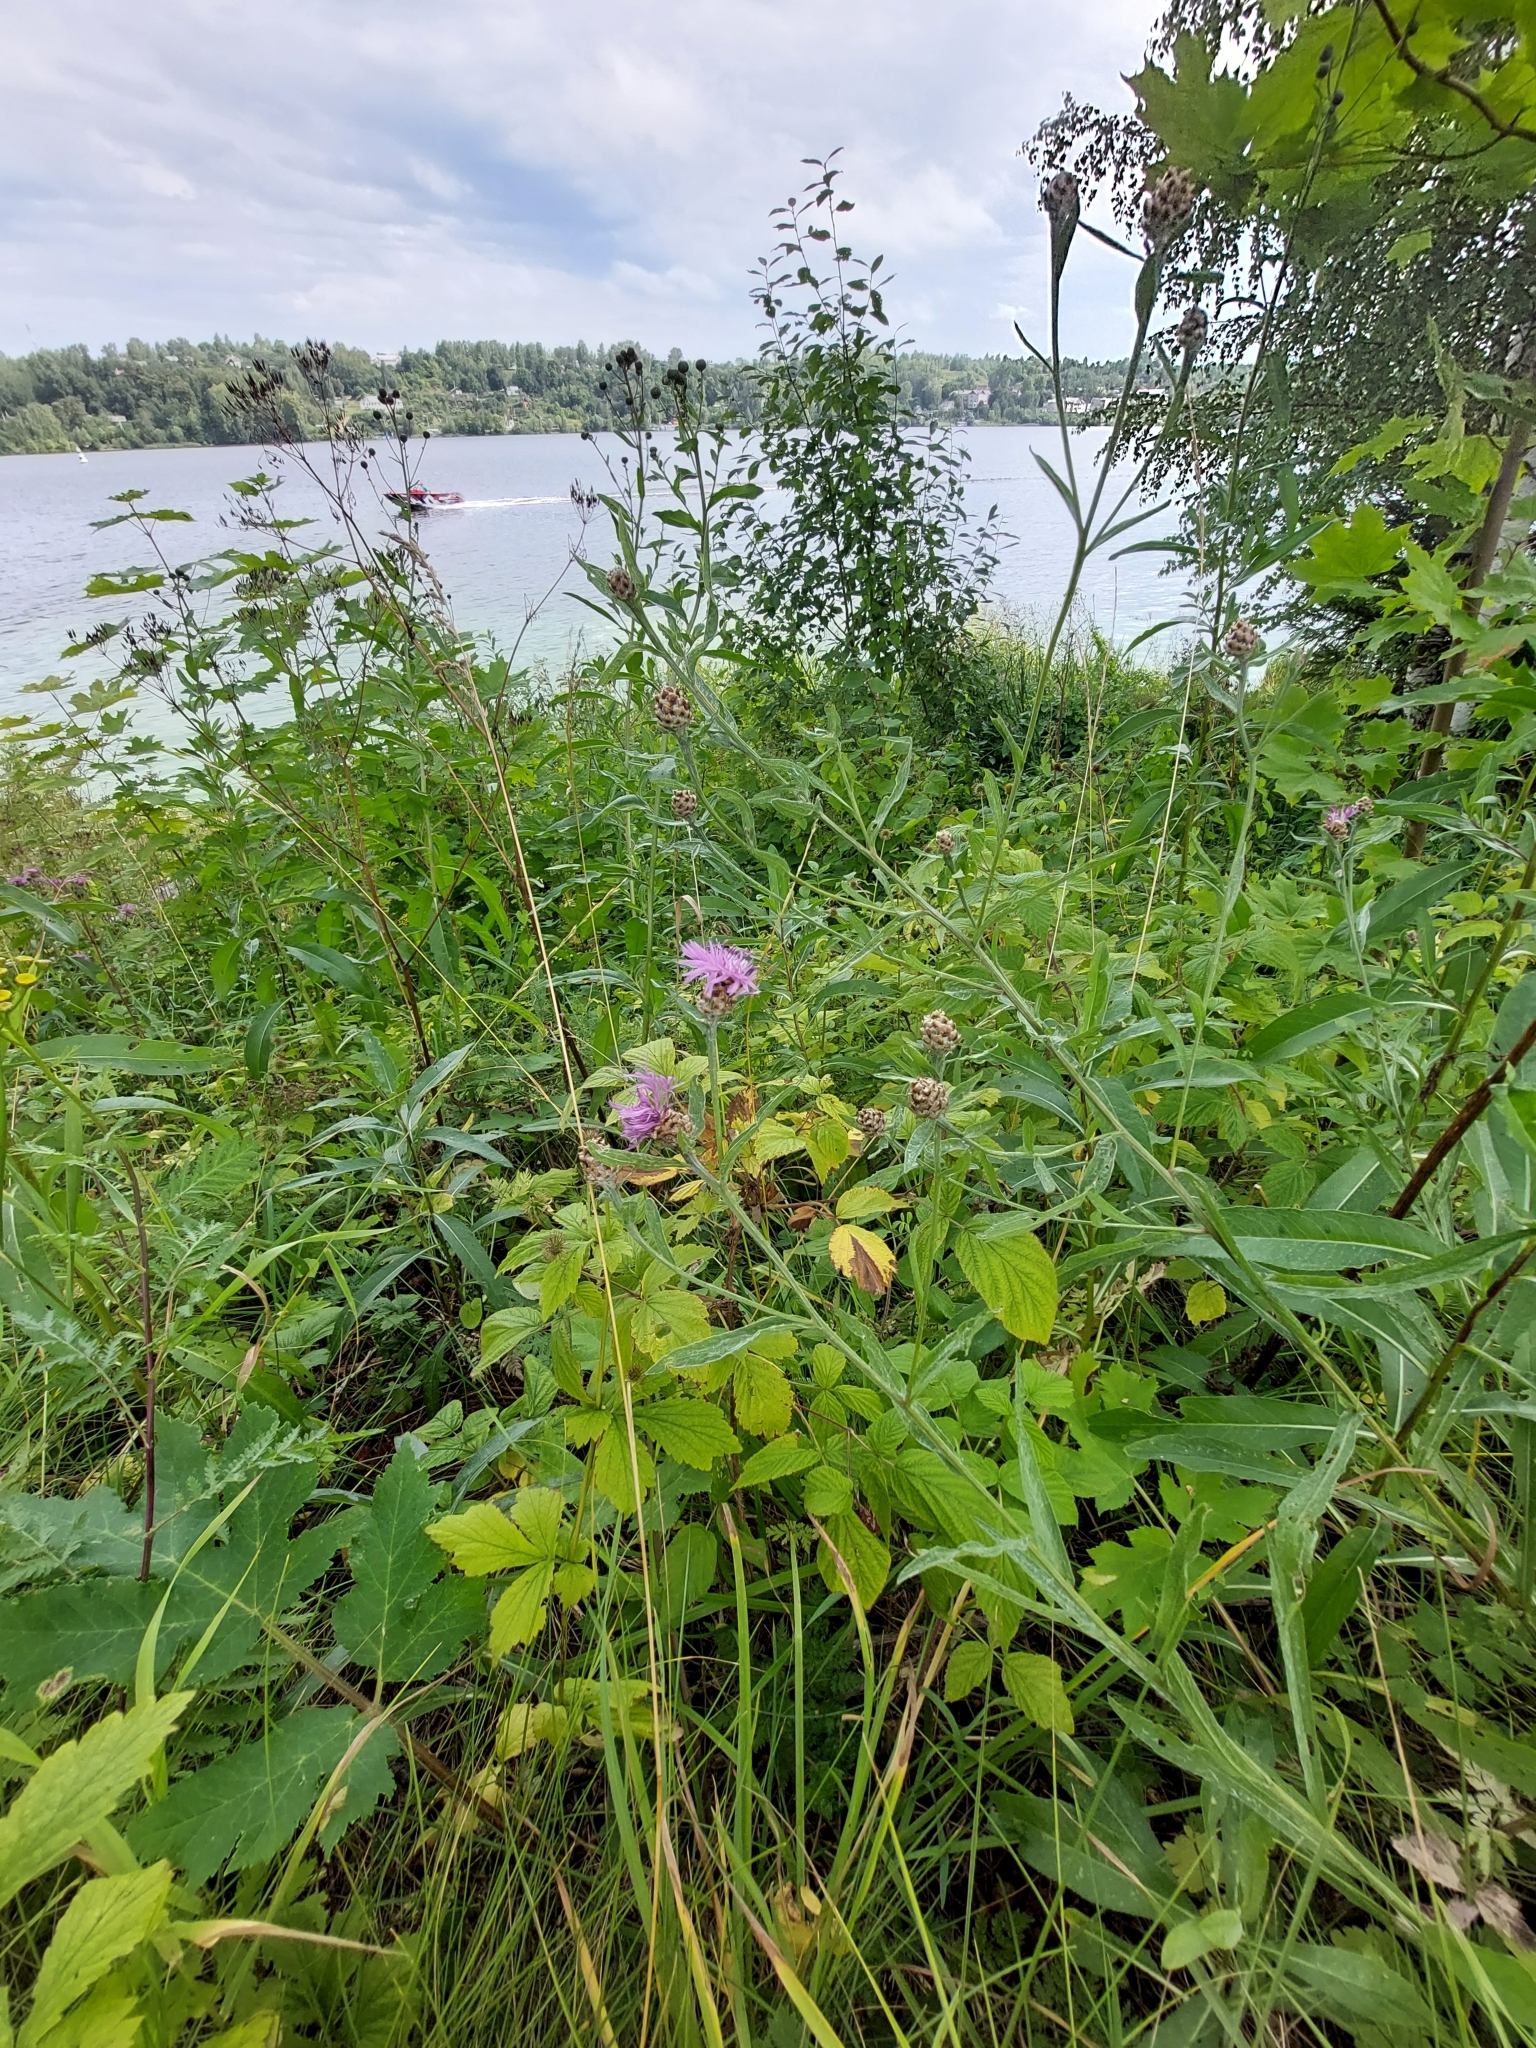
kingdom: Plantae
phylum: Tracheophyta
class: Magnoliopsida
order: Asterales
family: Asteraceae
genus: Centaurea
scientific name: Centaurea jacea
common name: Brown knapweed
